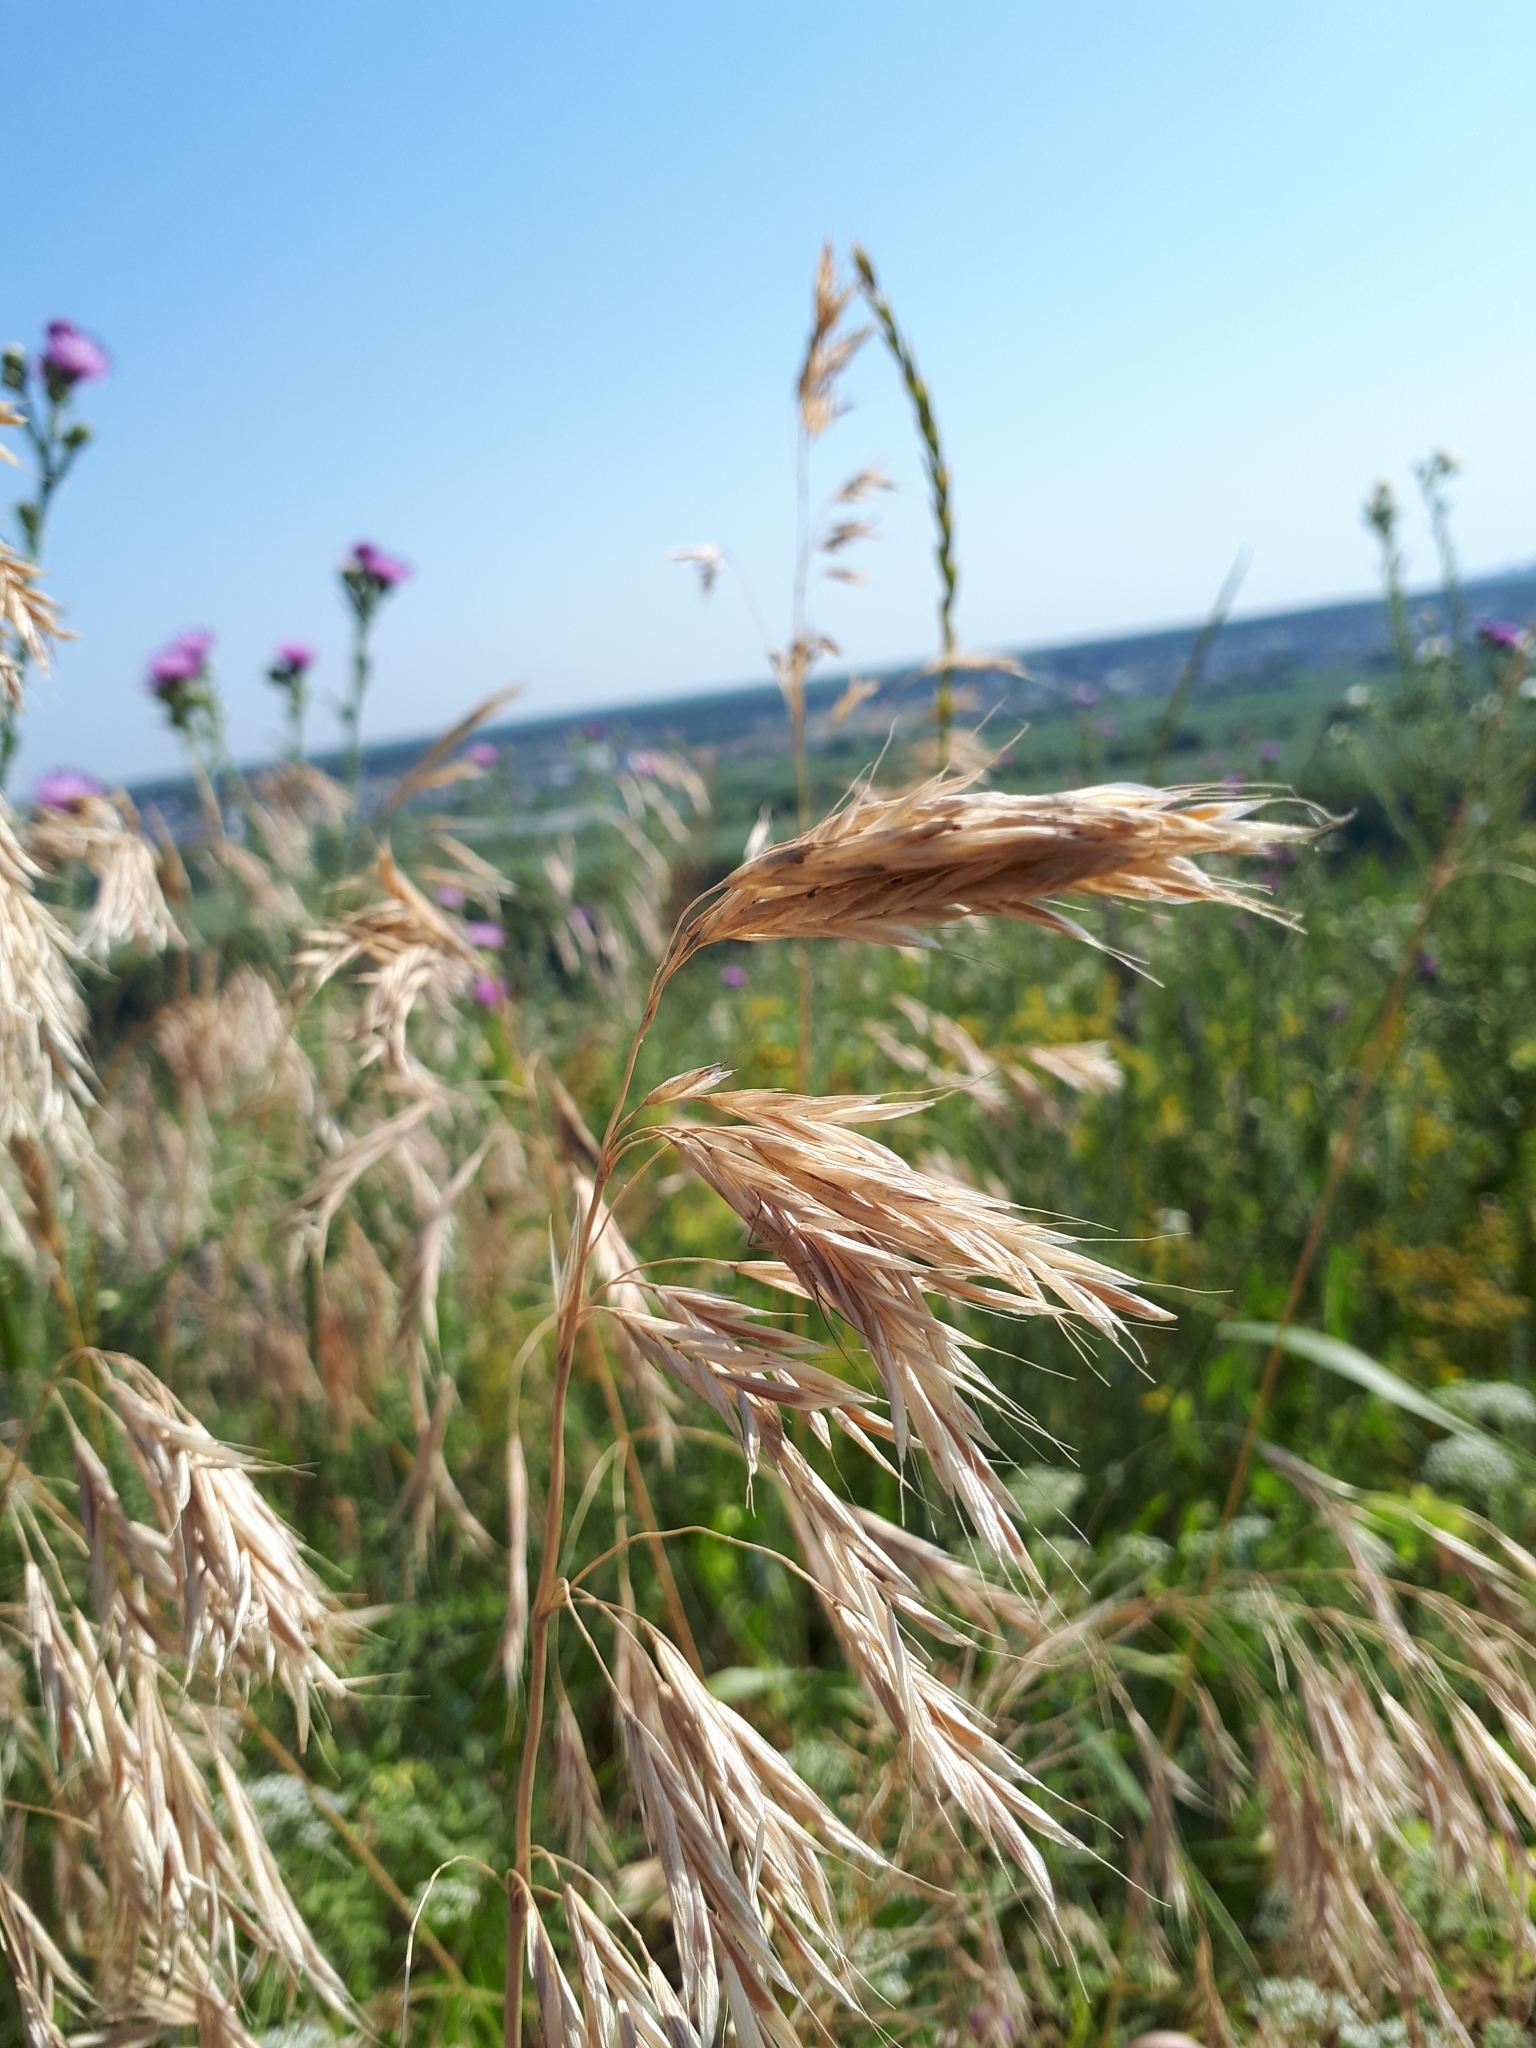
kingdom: Plantae
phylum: Tracheophyta
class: Liliopsida
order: Poales
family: Poaceae
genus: Bromus
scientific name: Bromus tectorum
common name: Cheatgrass
